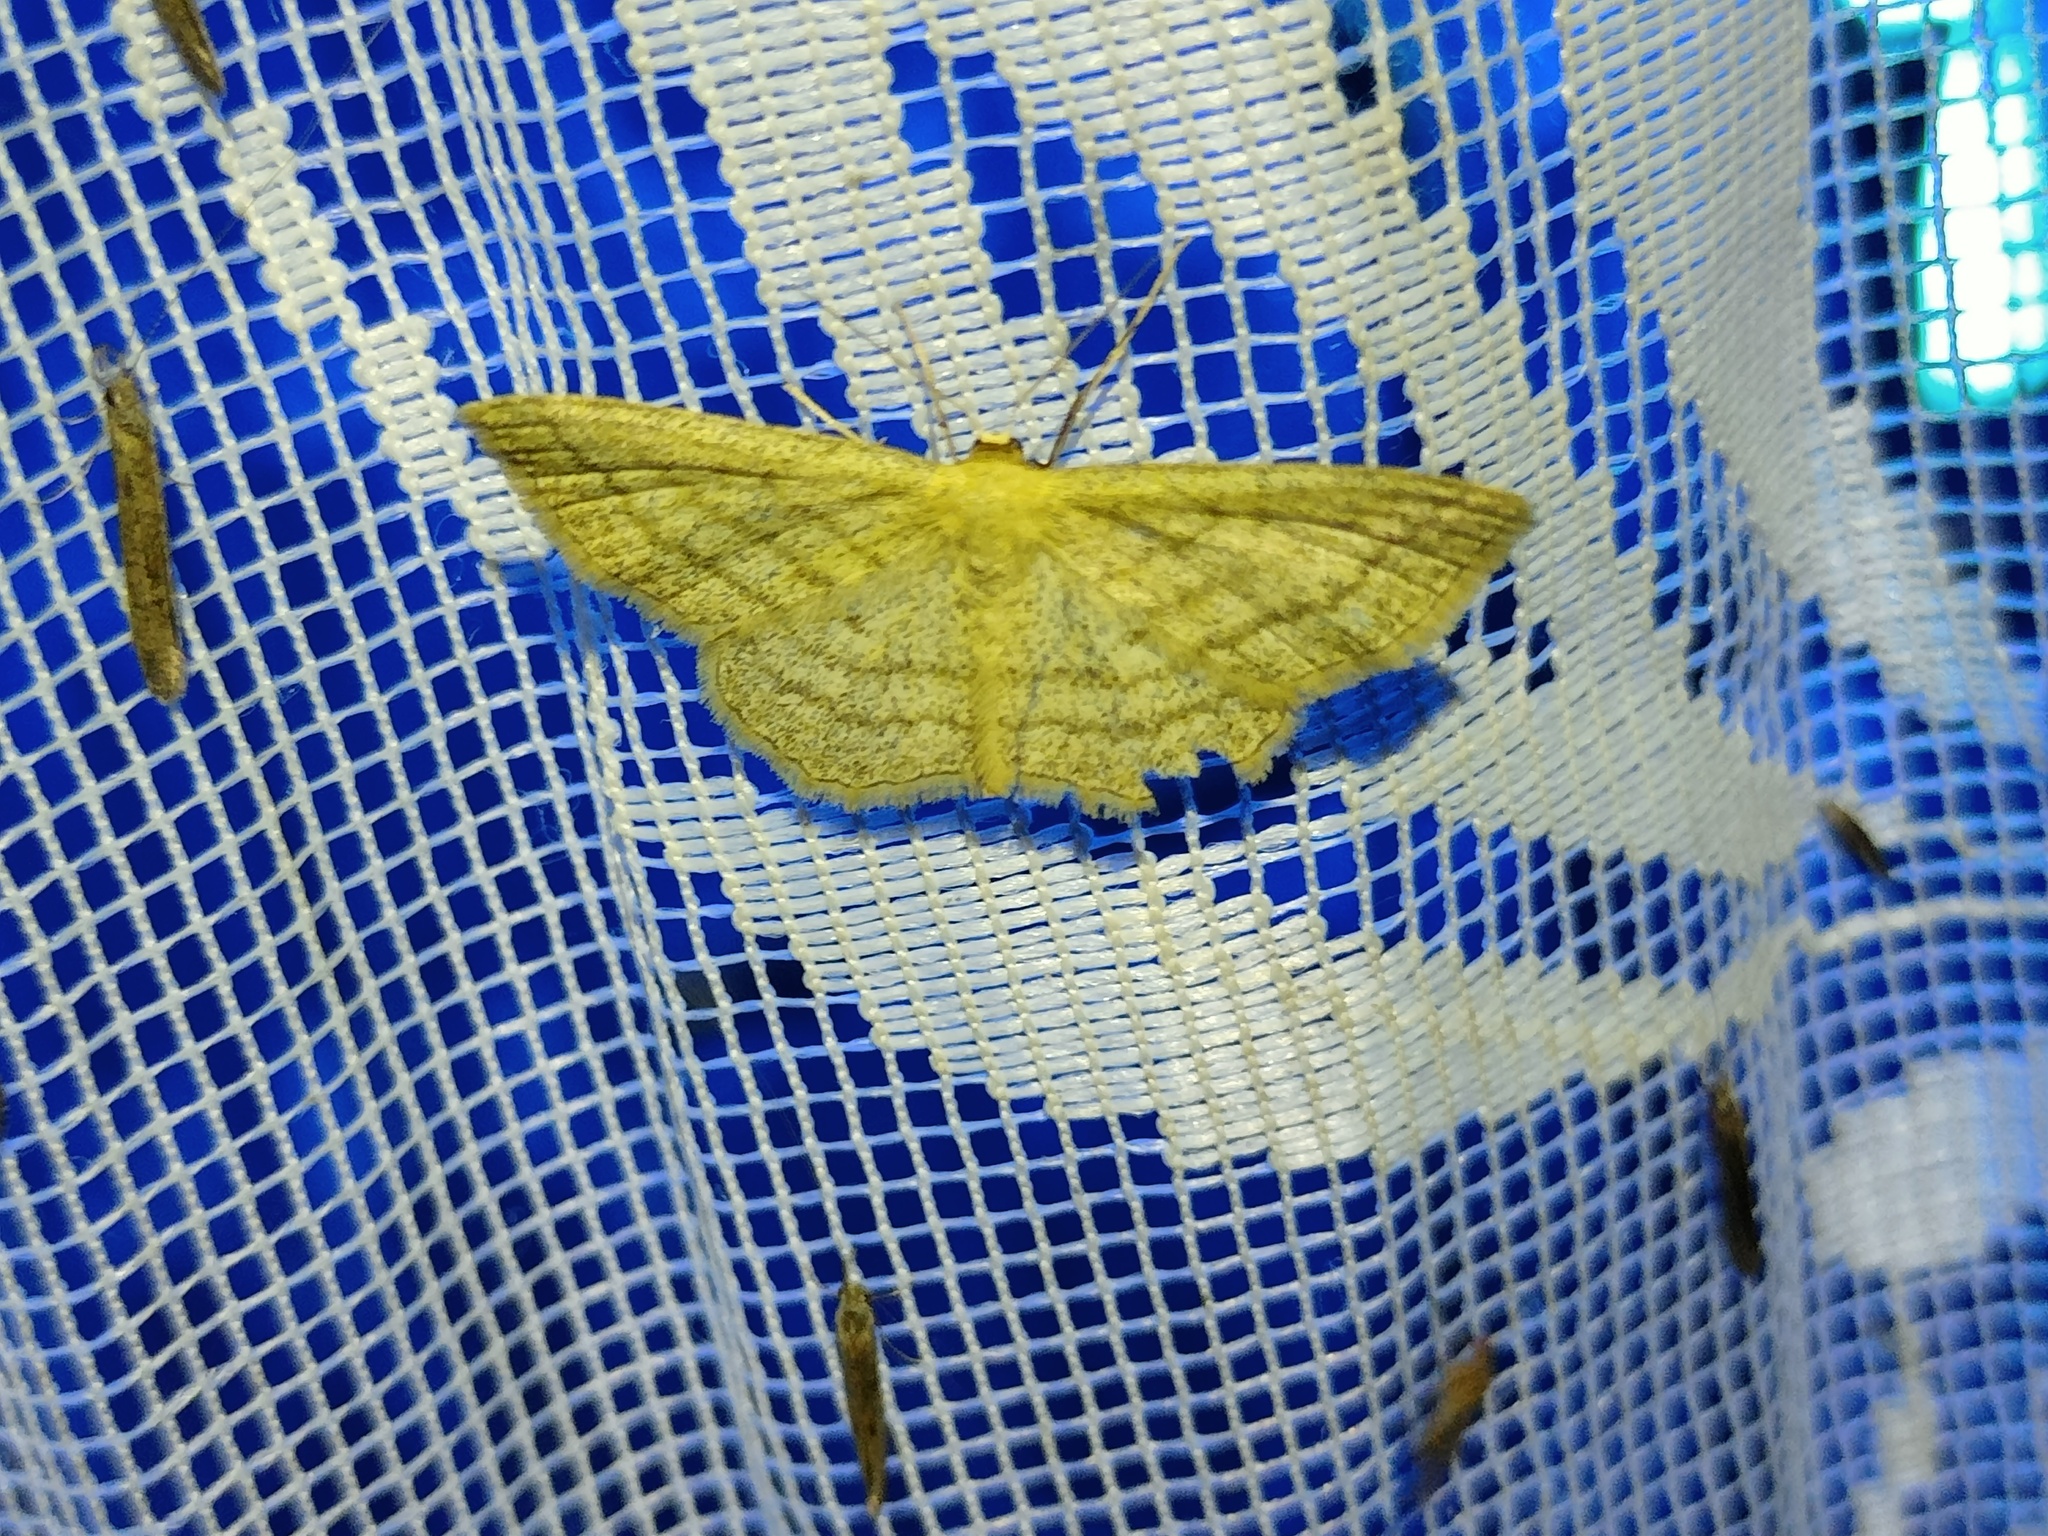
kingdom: Animalia
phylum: Arthropoda
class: Insecta
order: Lepidoptera
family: Geometridae
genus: Scopula
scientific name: Scopula virgulata
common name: Streaked wave
